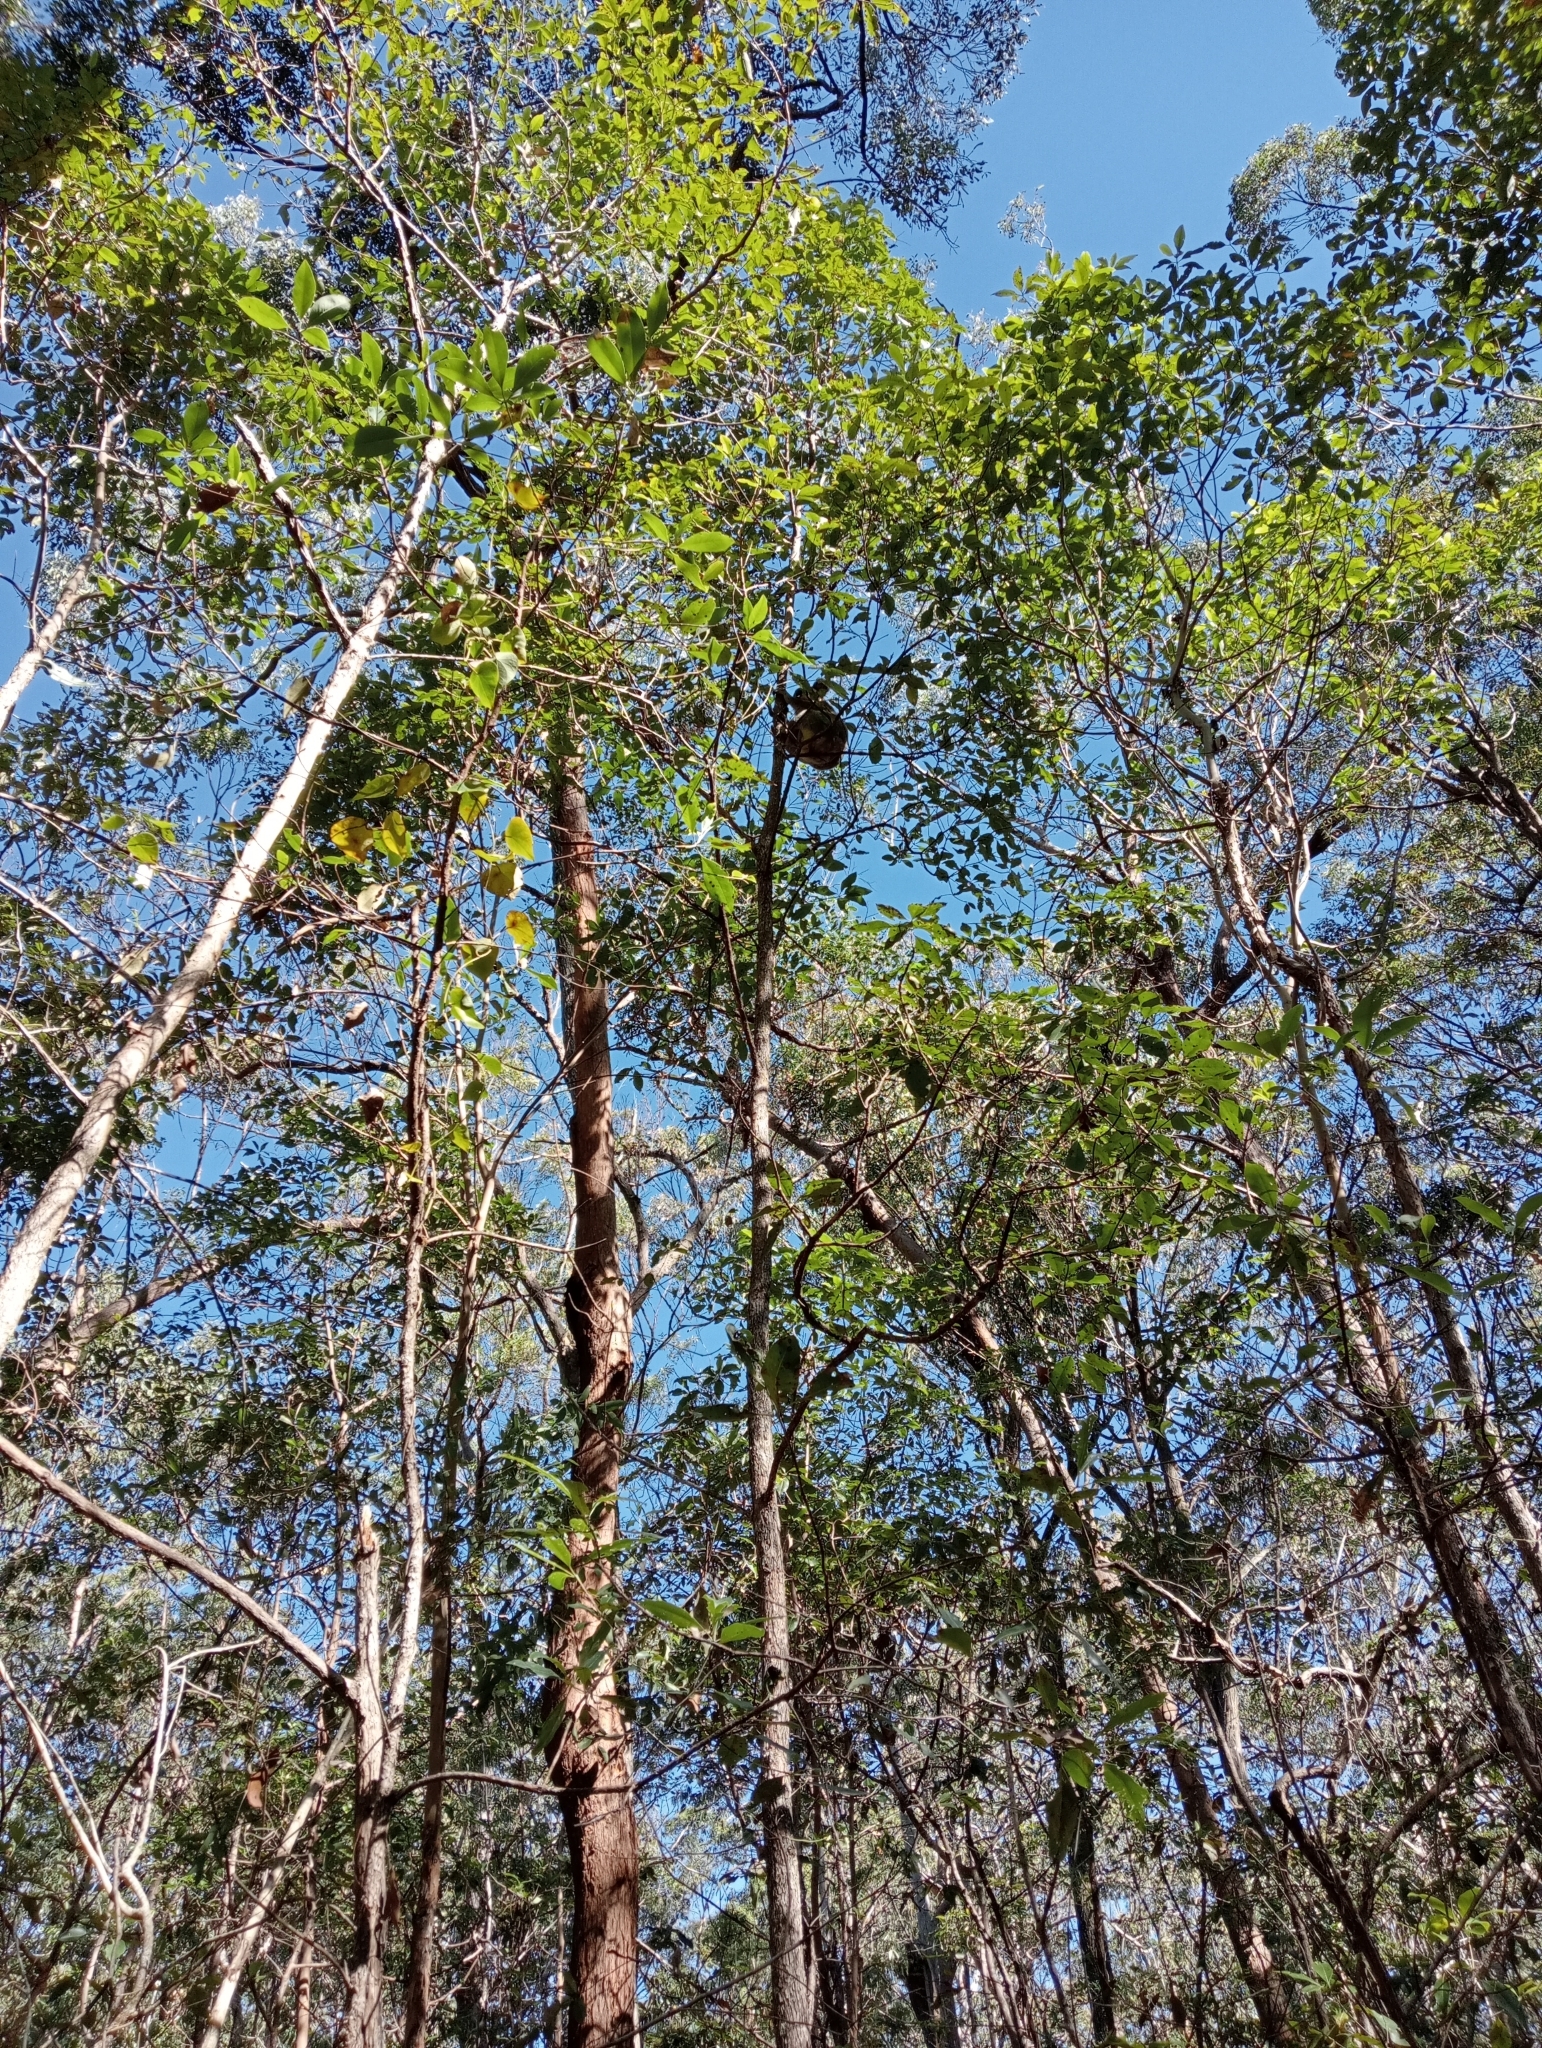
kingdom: Animalia
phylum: Chordata
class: Mammalia
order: Diprotodontia
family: Phascolarctidae
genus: Phascolarctos
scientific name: Phascolarctos cinereus
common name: Koala
